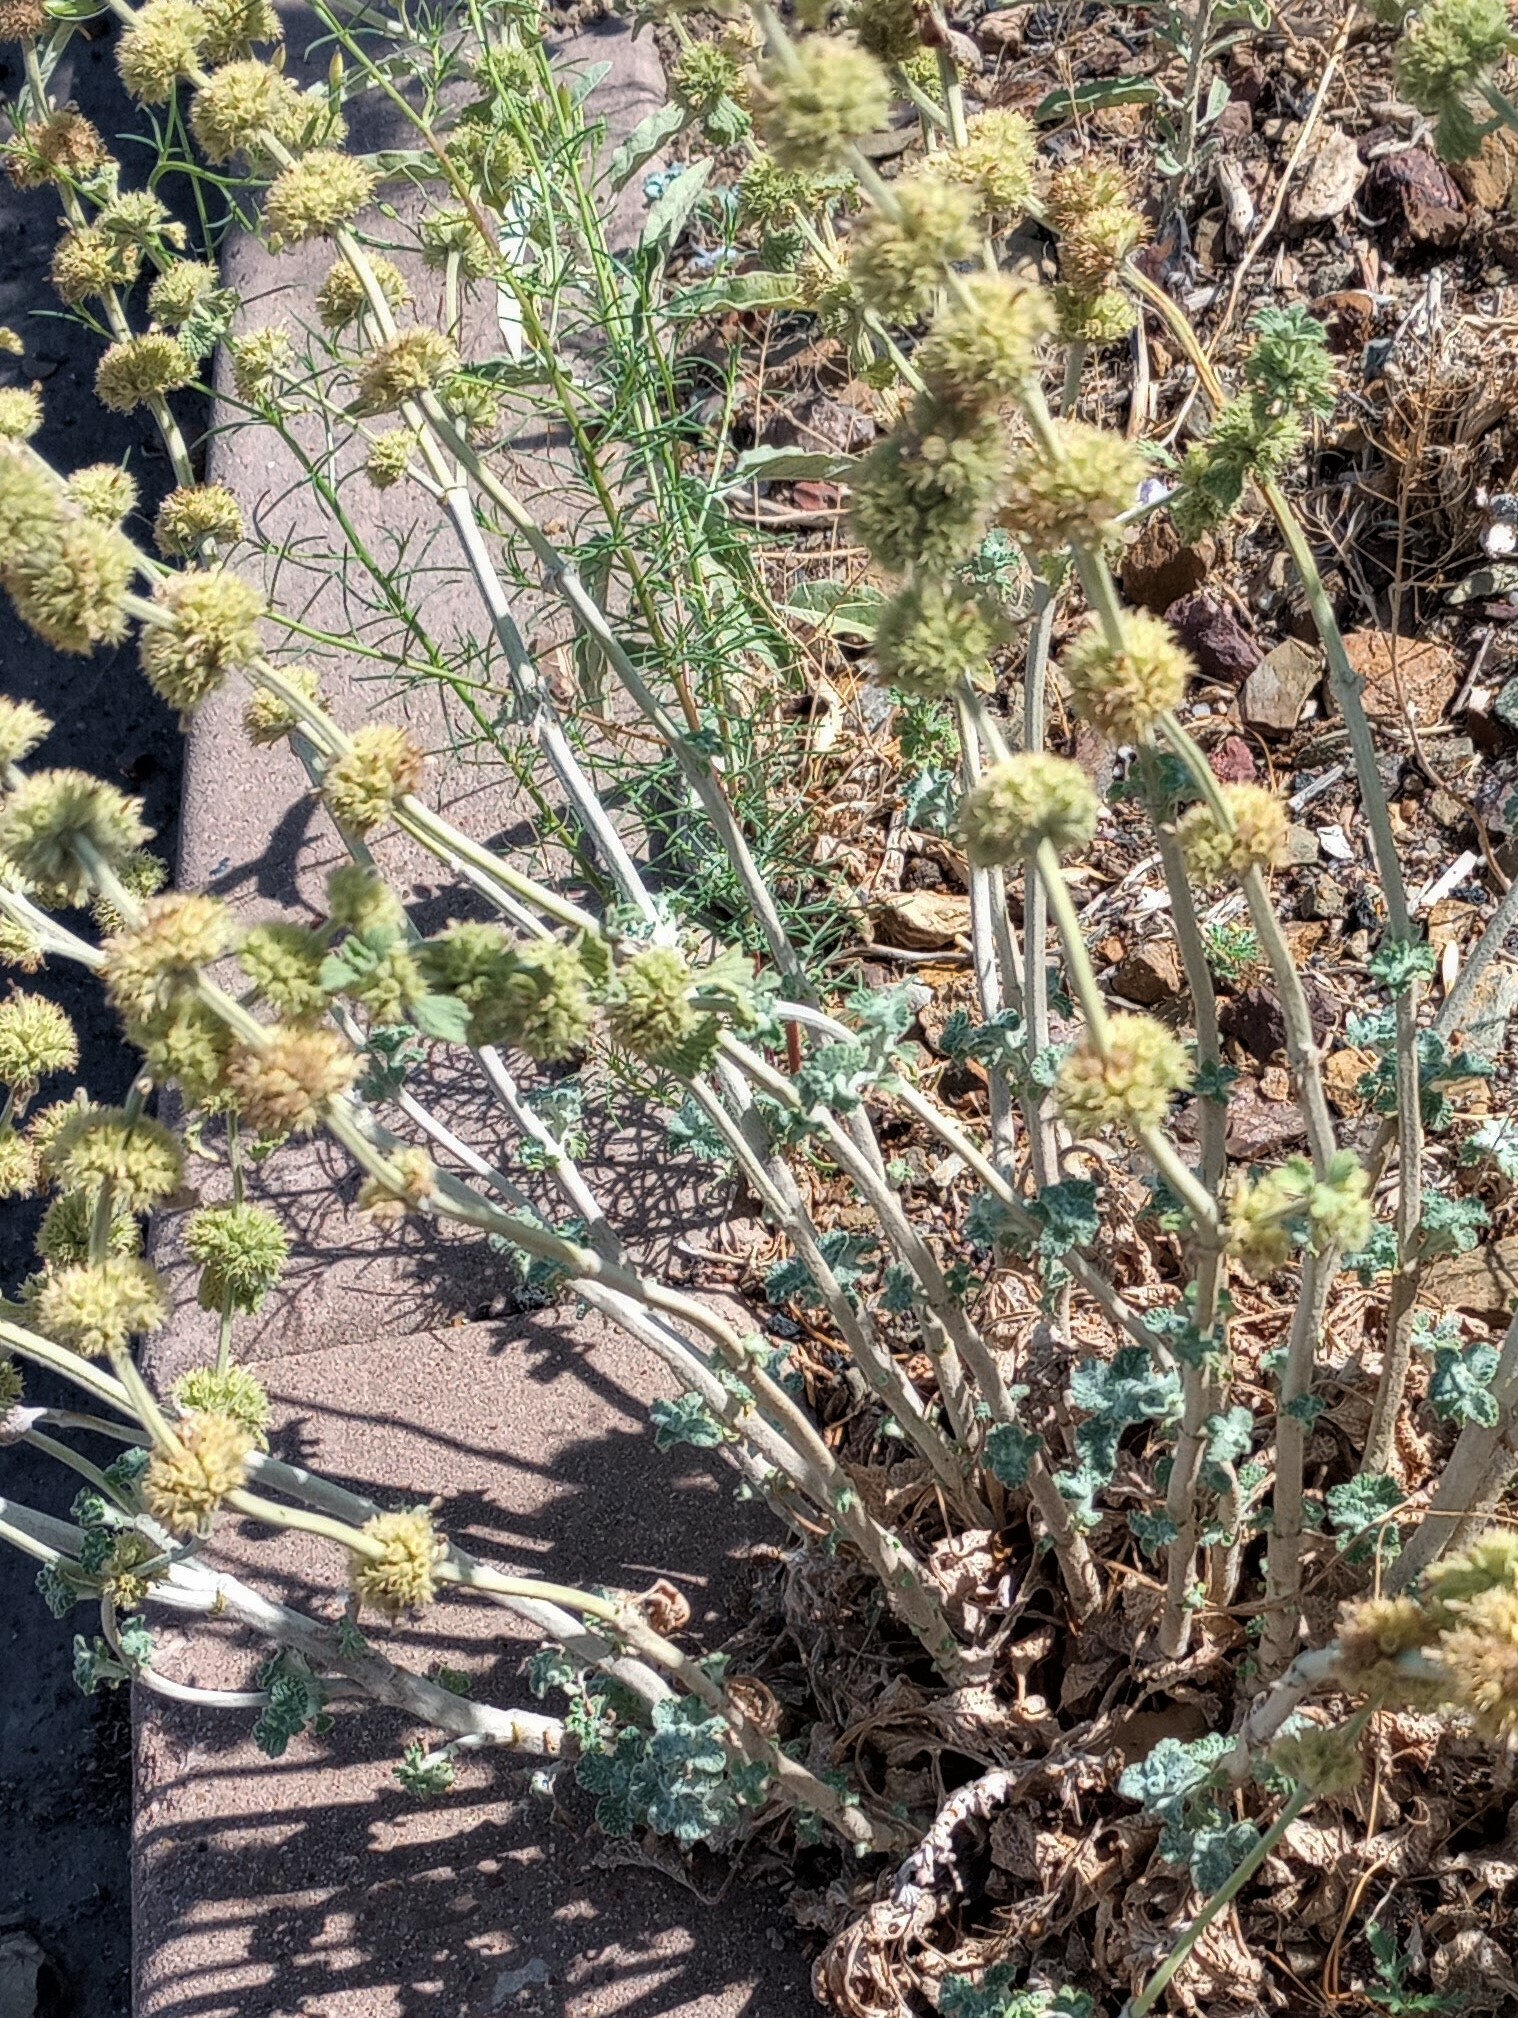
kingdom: Plantae
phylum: Tracheophyta
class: Magnoliopsida
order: Lamiales
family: Lamiaceae
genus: Marrubium
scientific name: Marrubium vulgare
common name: Horehound
